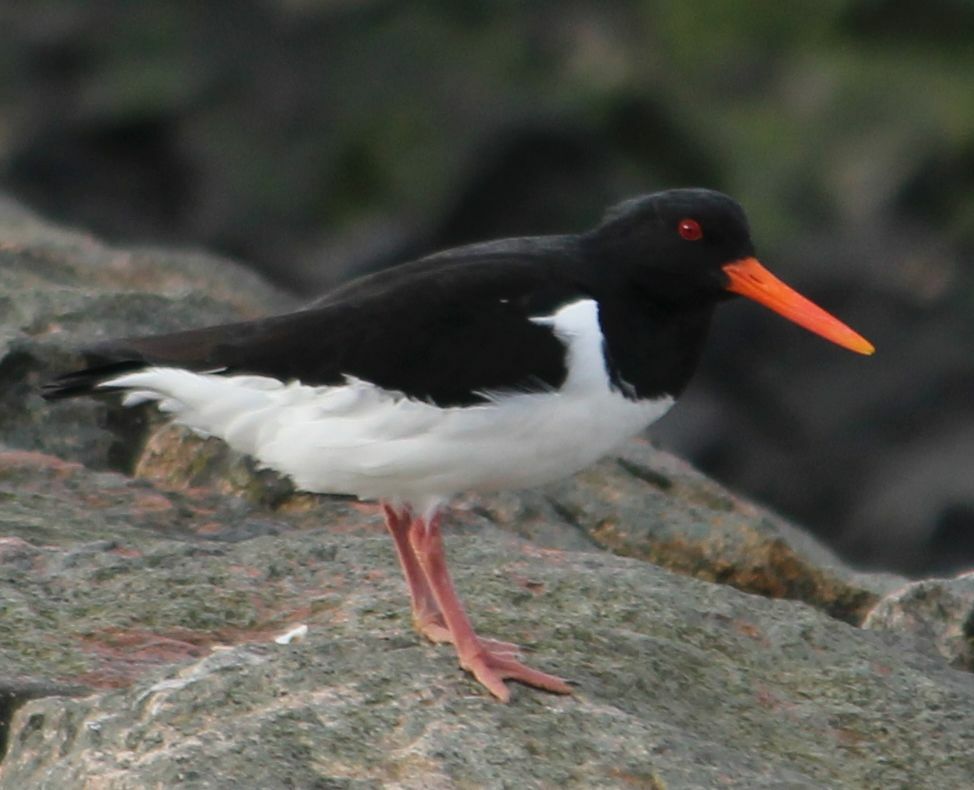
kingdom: Animalia
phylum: Chordata
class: Aves
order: Charadriiformes
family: Haematopodidae
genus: Haematopus
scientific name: Haematopus ostralegus
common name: Eurasian oystercatcher
